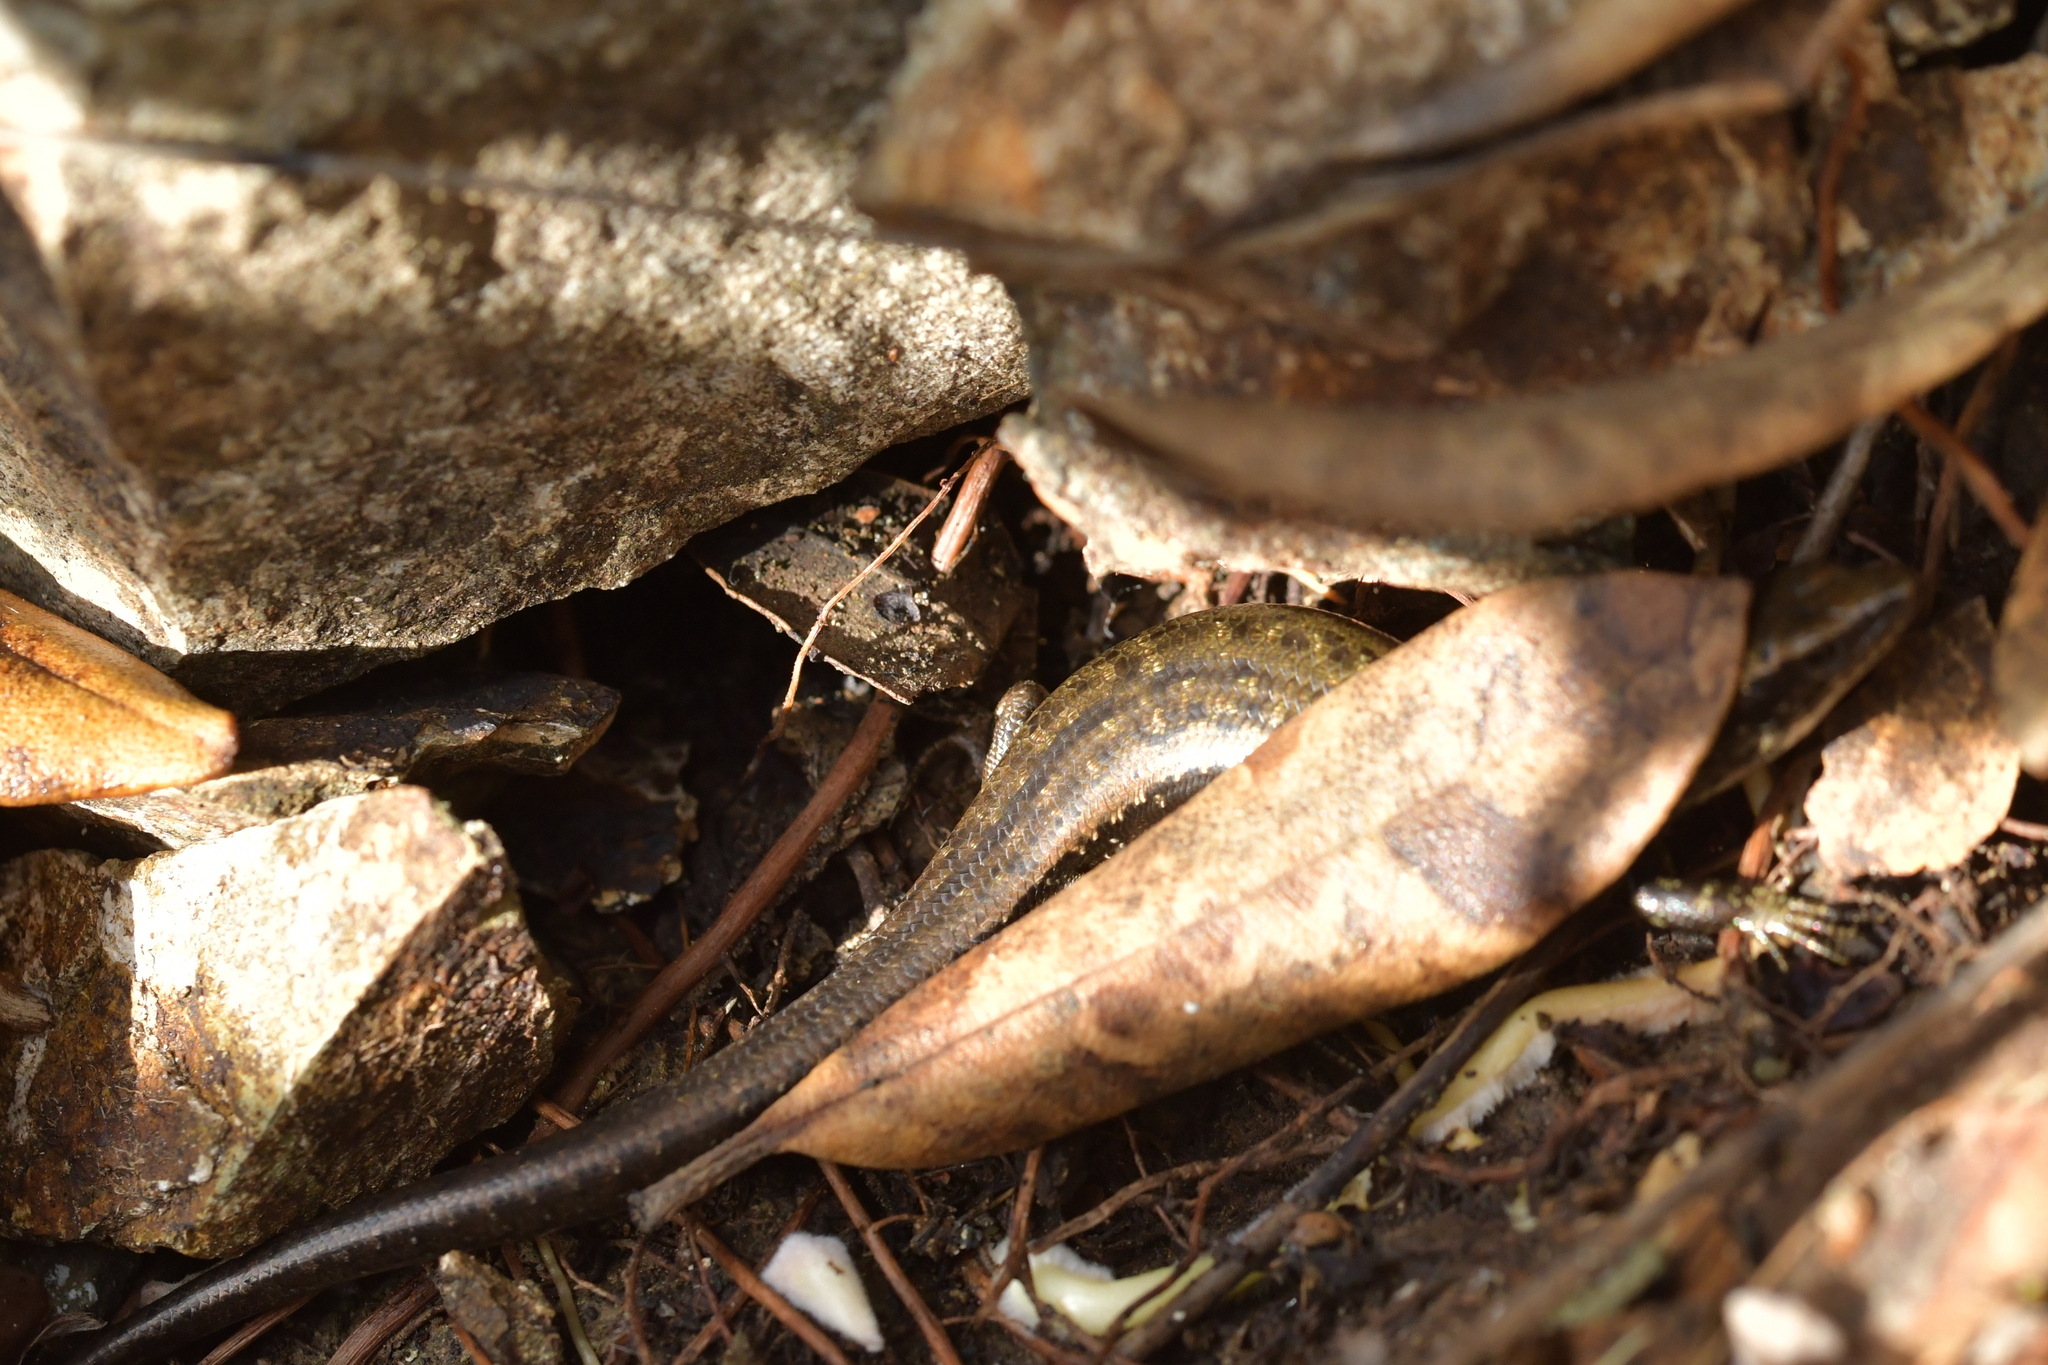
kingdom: Animalia
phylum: Chordata
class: Squamata
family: Scincidae
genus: Oligosoma
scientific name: Oligosoma smithi
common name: Shore skink
